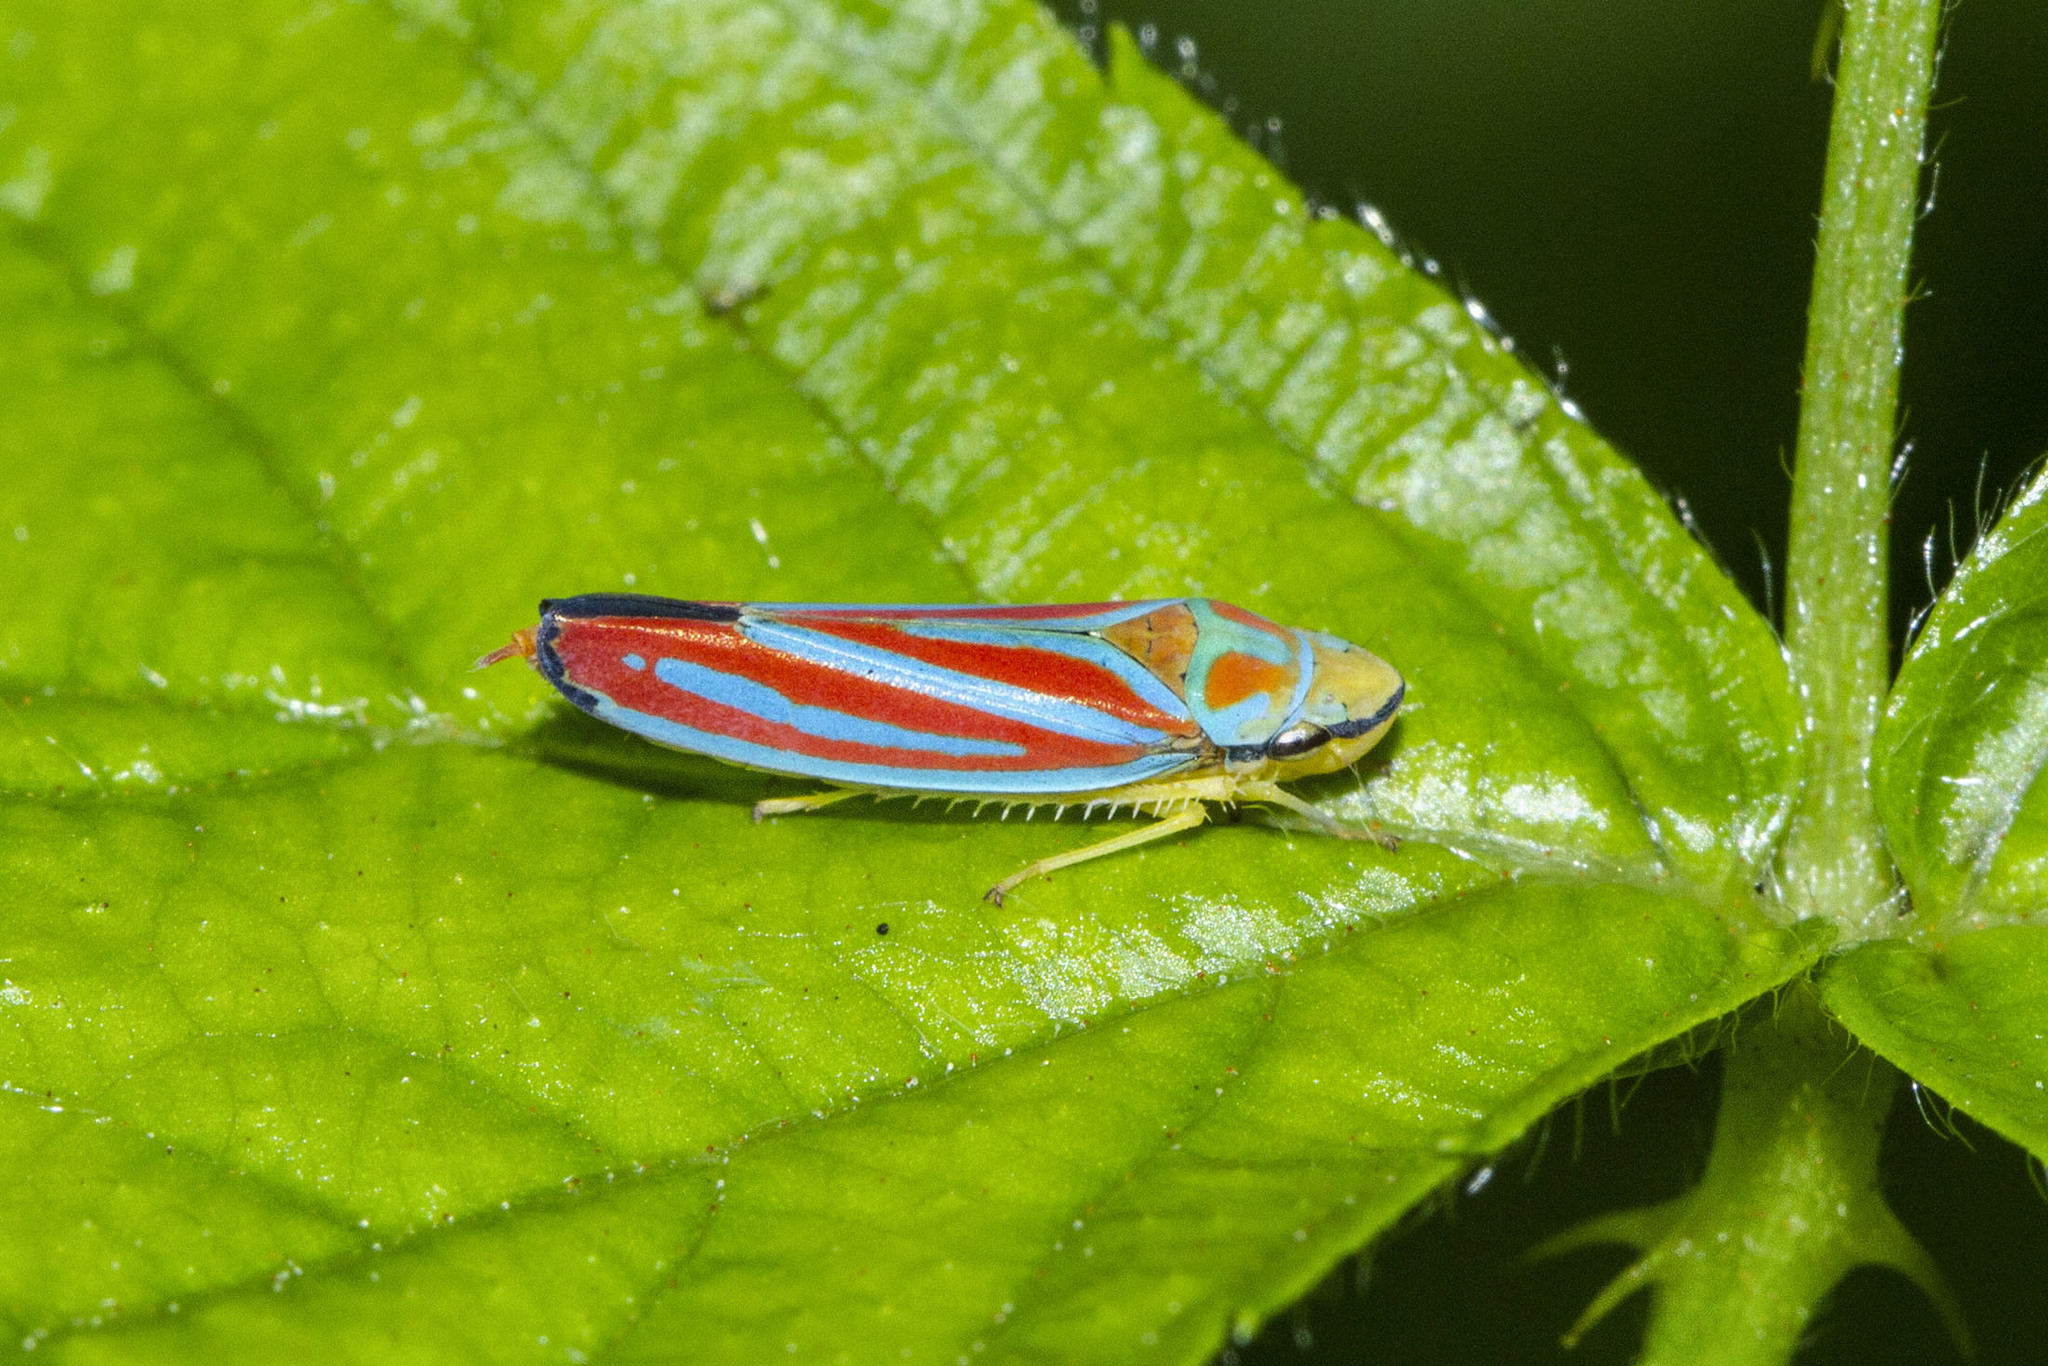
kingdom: Animalia
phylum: Arthropoda
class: Insecta
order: Hemiptera
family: Cicadellidae
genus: Graphocephala
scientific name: Graphocephala coccinea
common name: Candy-striped leafhopper
